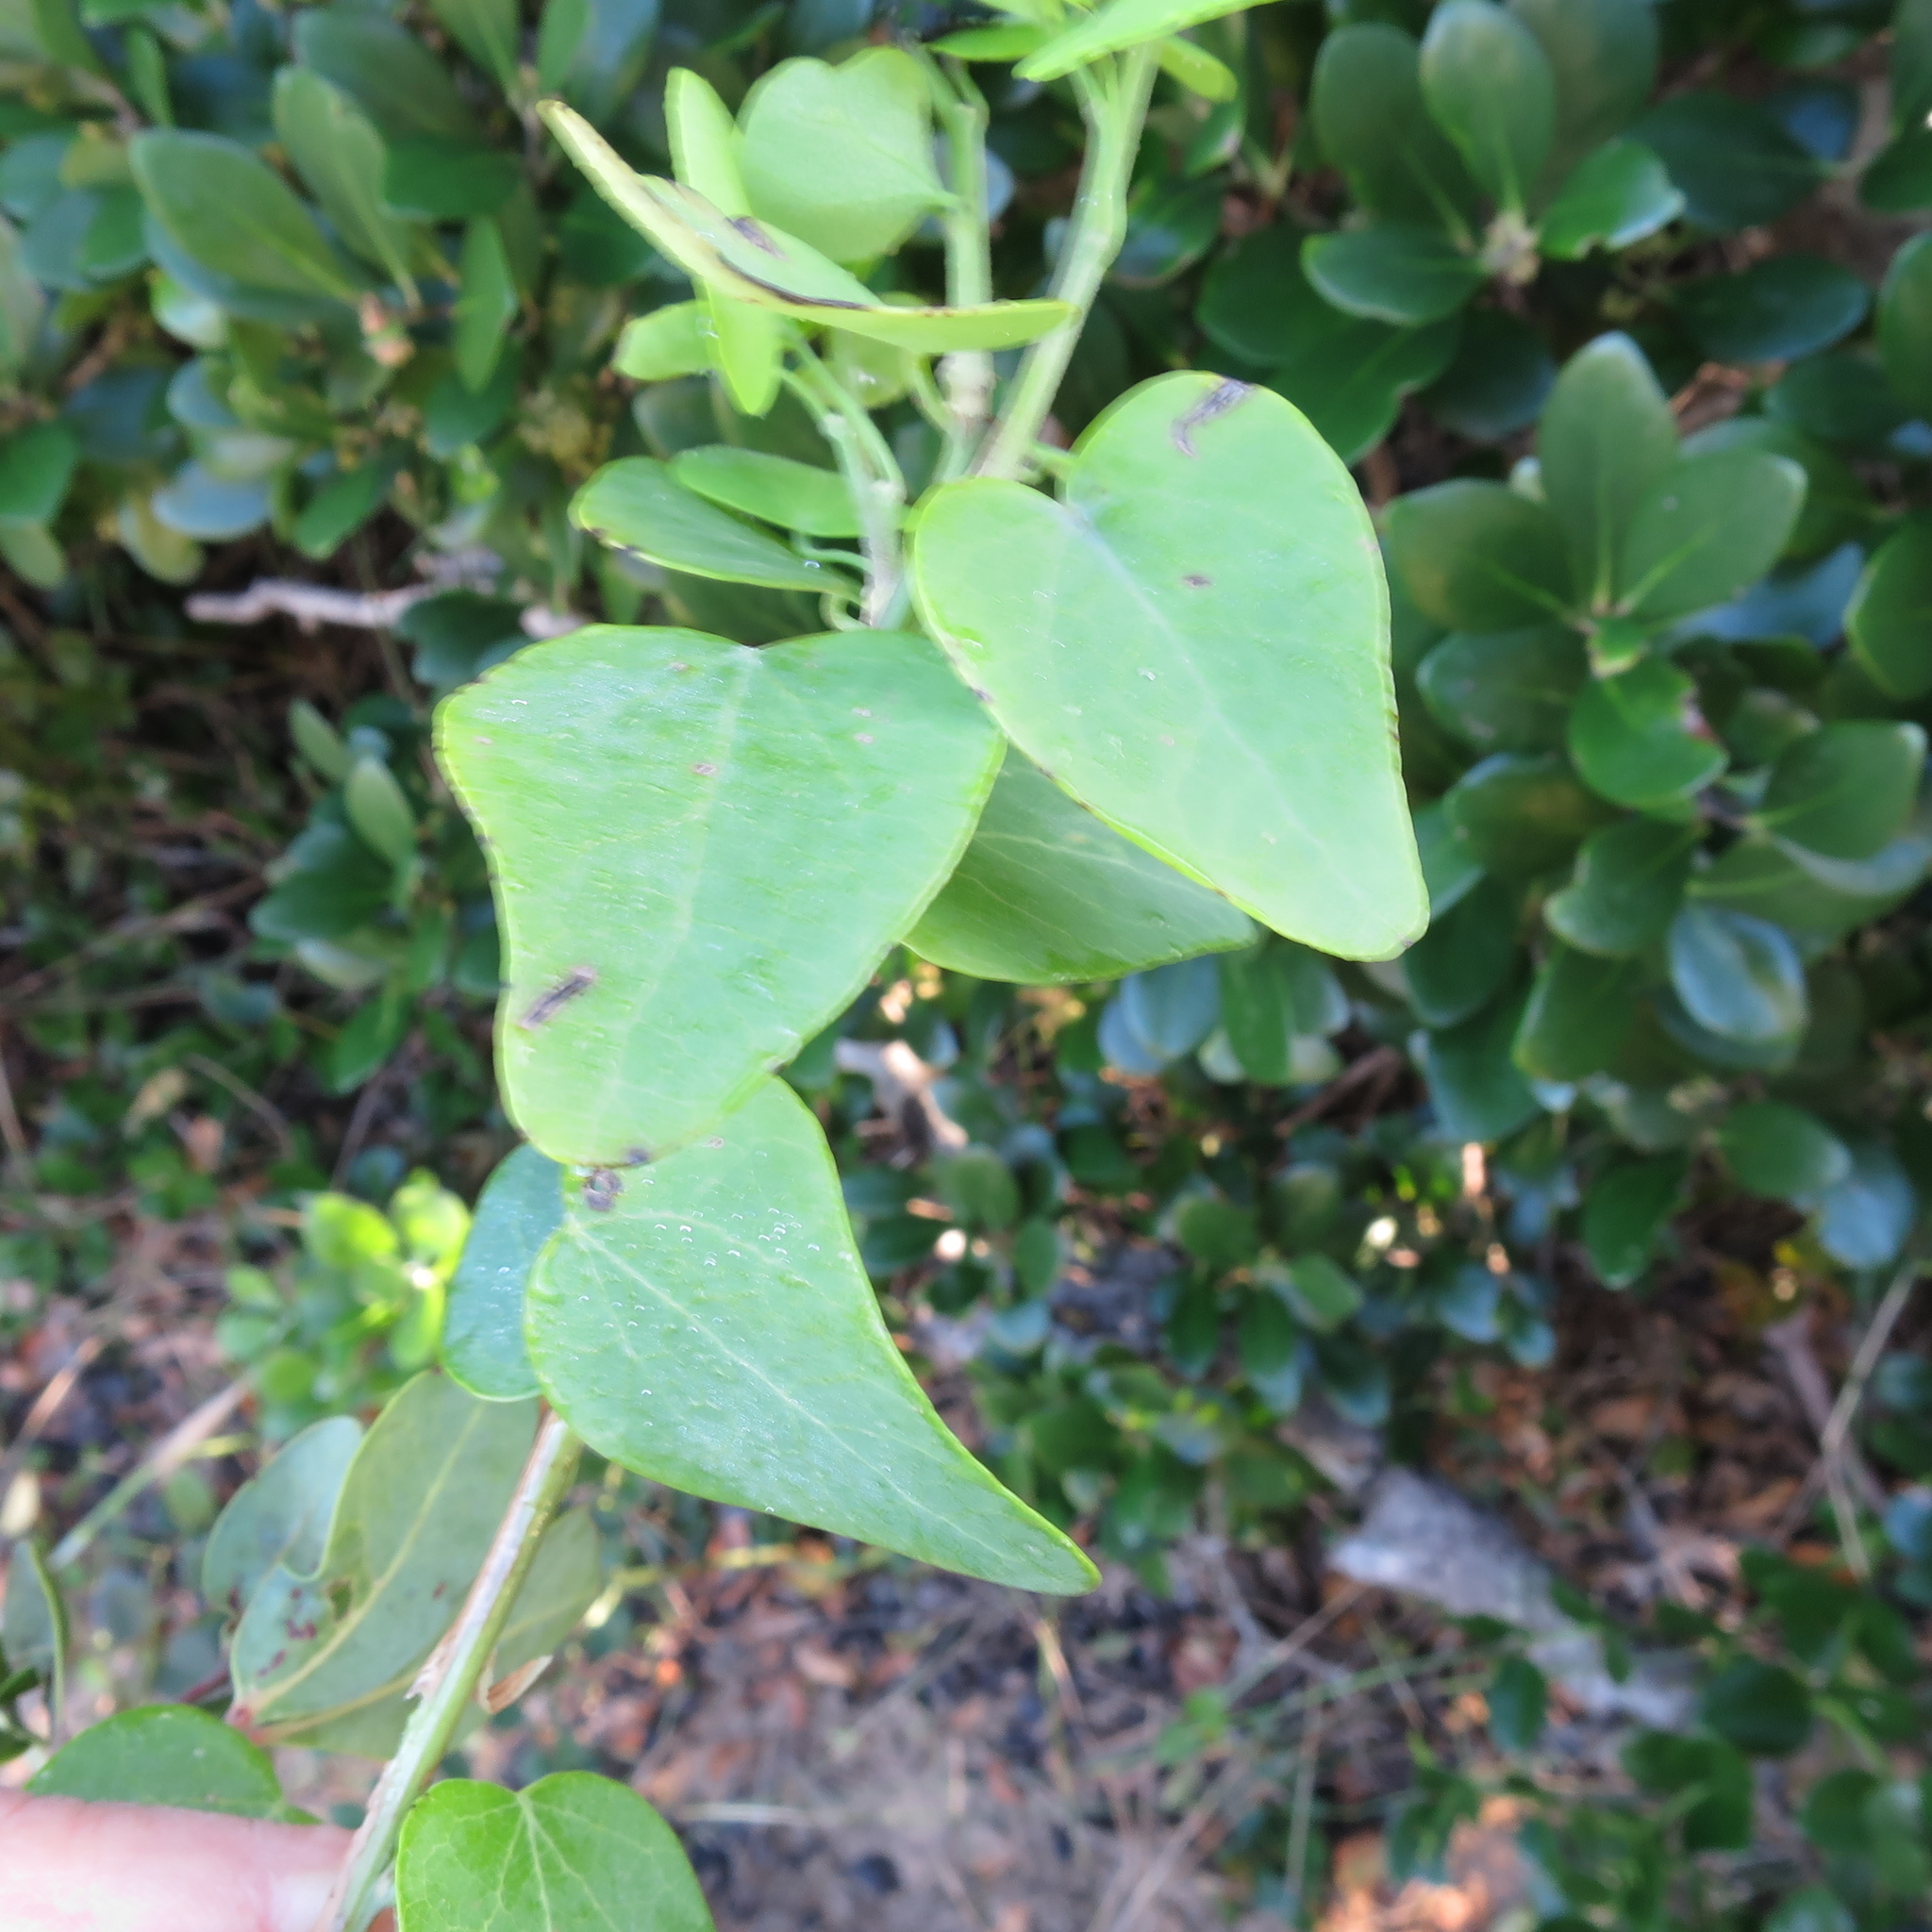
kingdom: Plantae
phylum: Tracheophyta
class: Magnoliopsida
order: Ranunculales
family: Menispermaceae
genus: Cissampelos
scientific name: Cissampelos capensis
